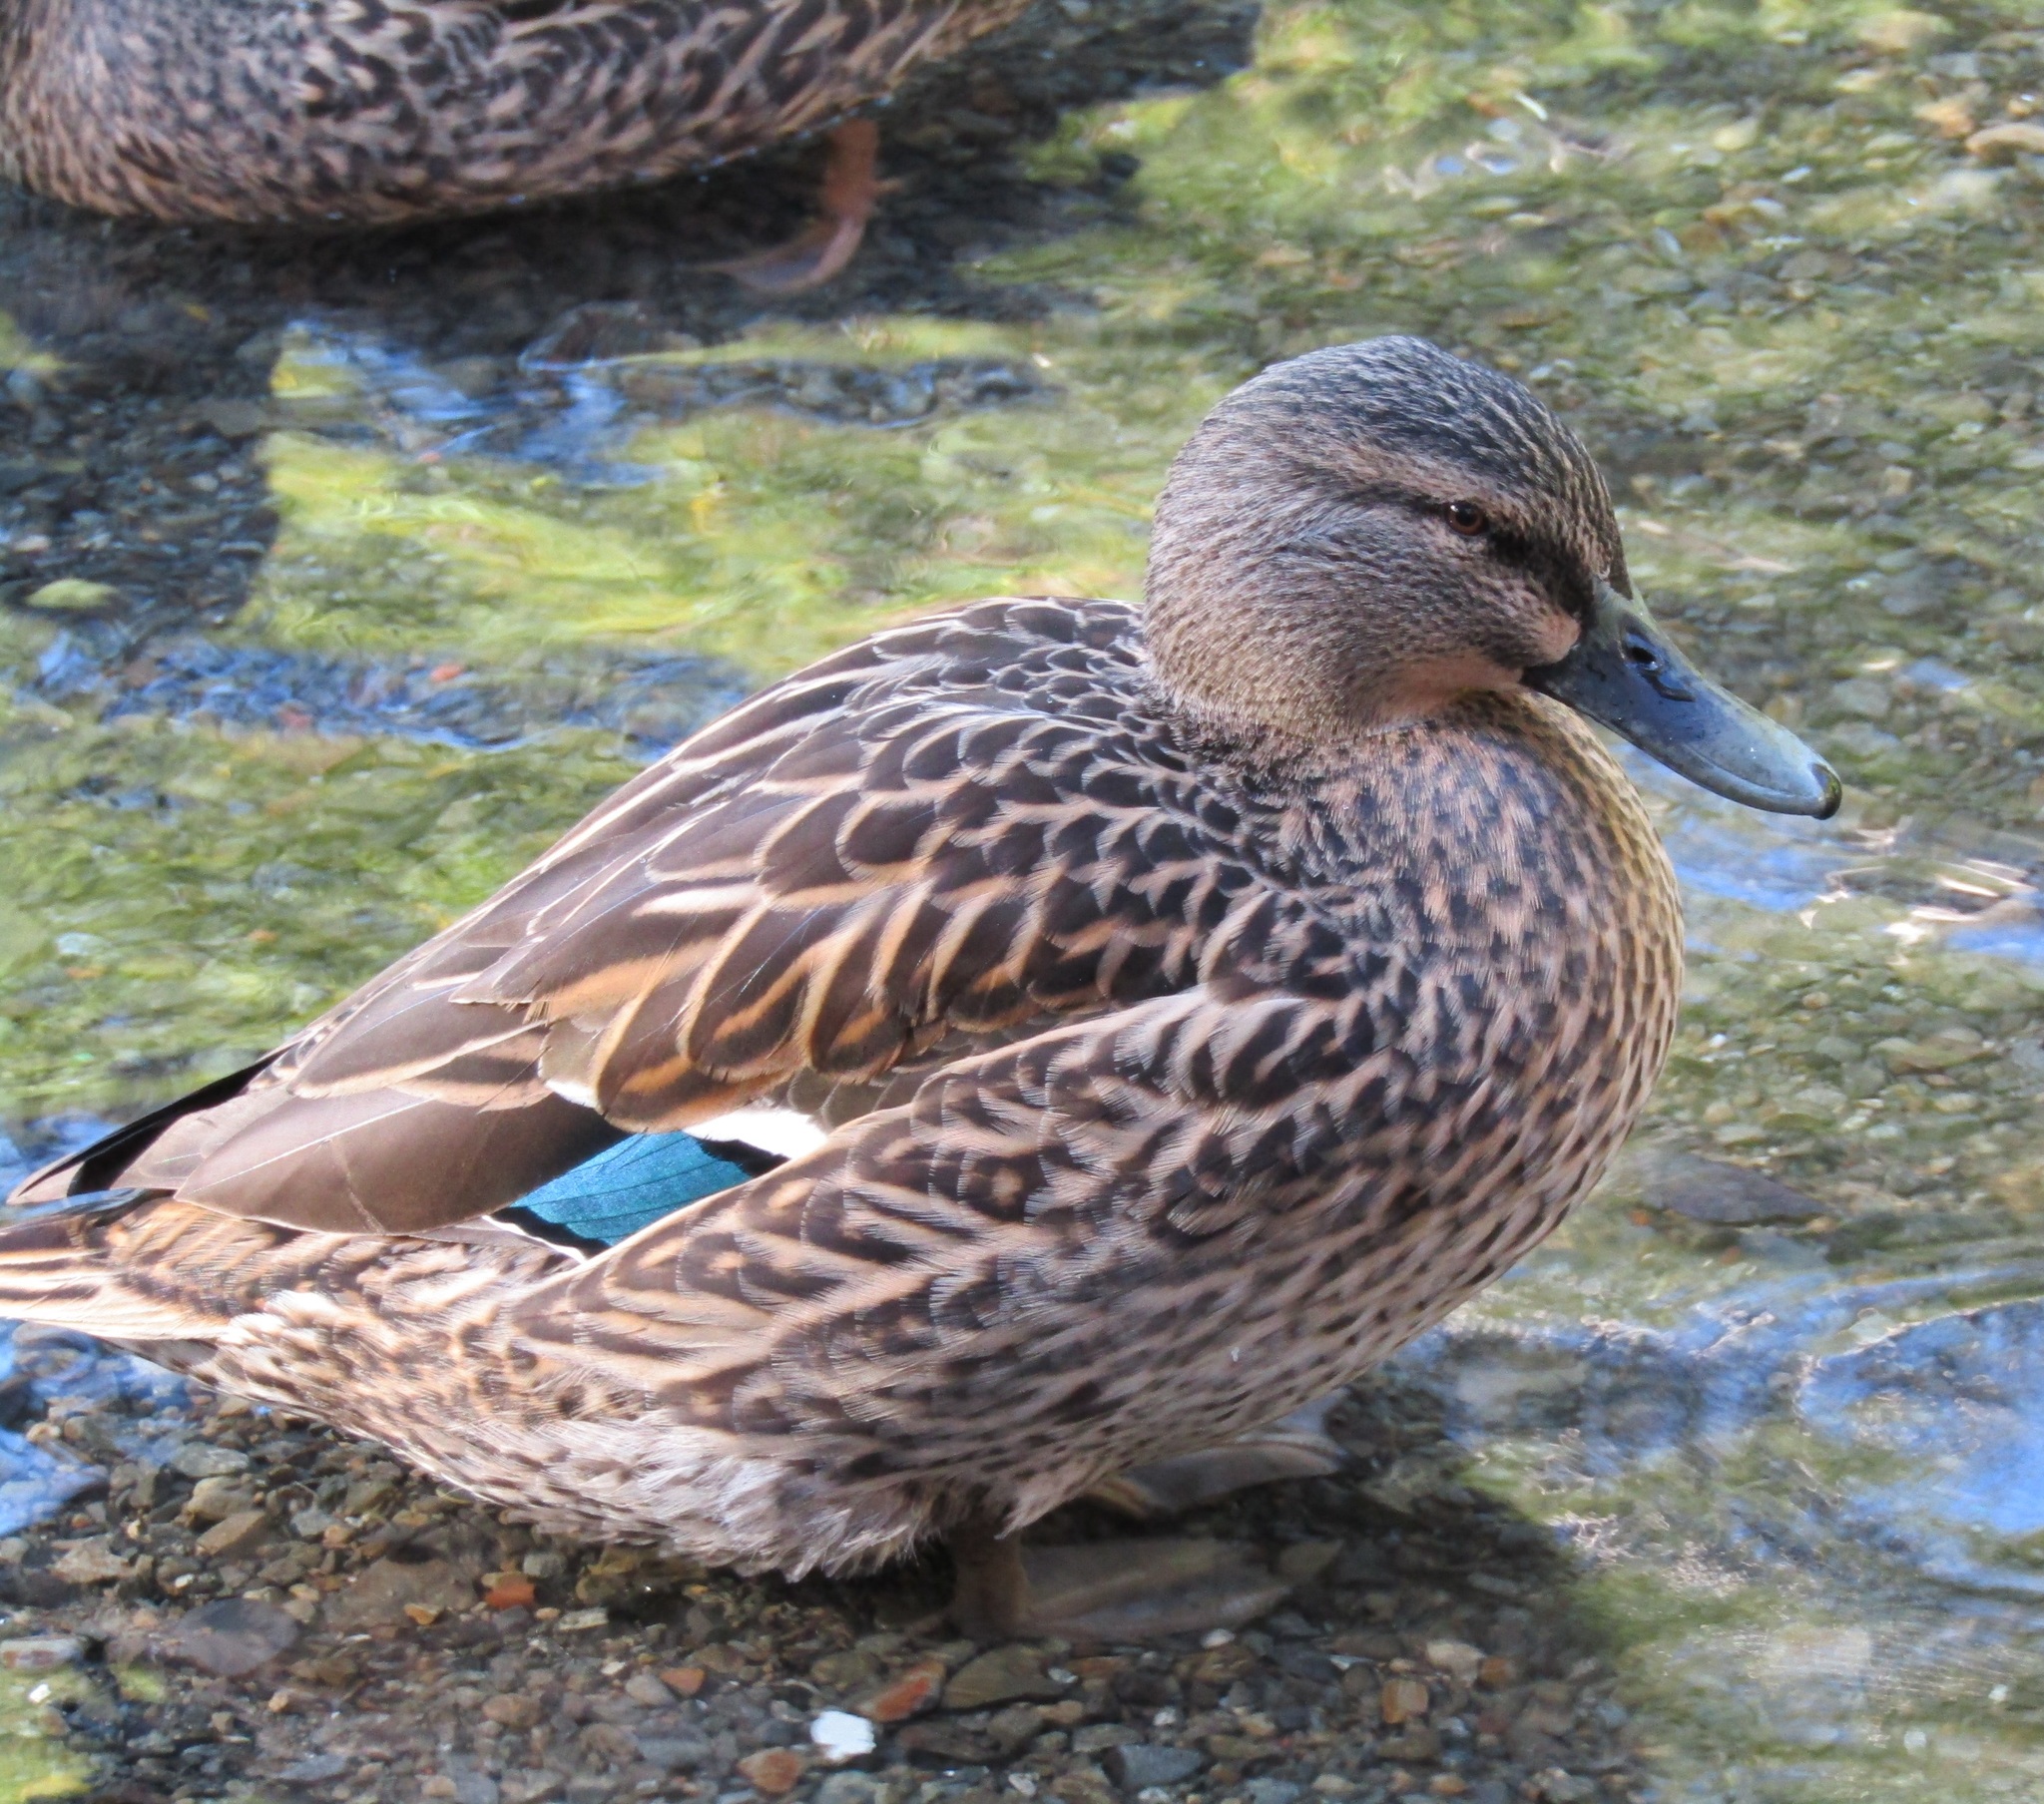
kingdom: Animalia
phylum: Chordata
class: Aves
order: Anseriformes
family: Anatidae
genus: Anas
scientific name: Anas
